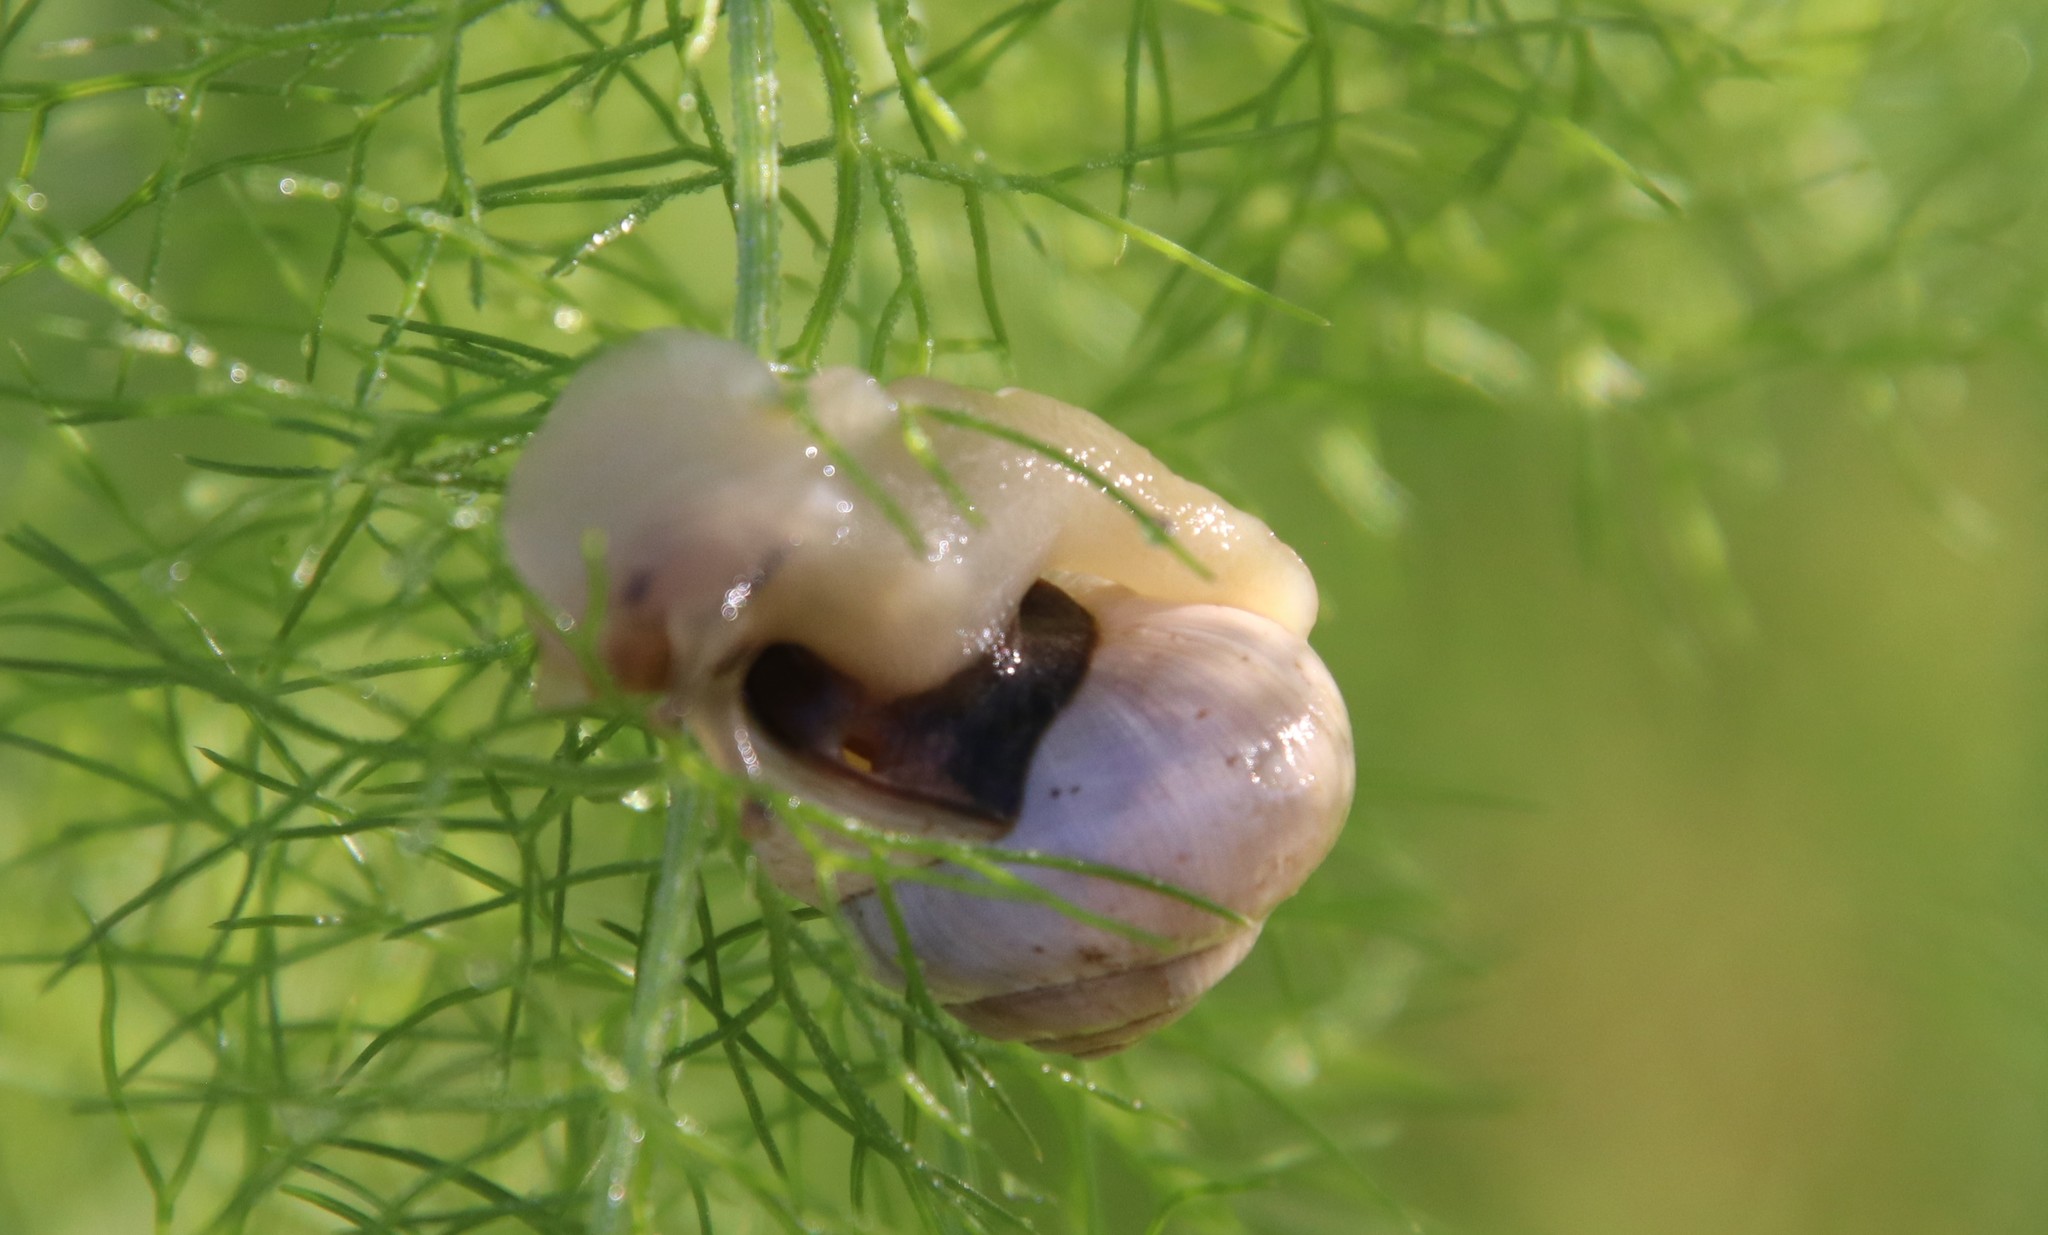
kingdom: Animalia
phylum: Mollusca
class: Gastropoda
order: Stylommatophora
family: Helicidae
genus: Theba
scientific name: Theba pisana
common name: White snail
